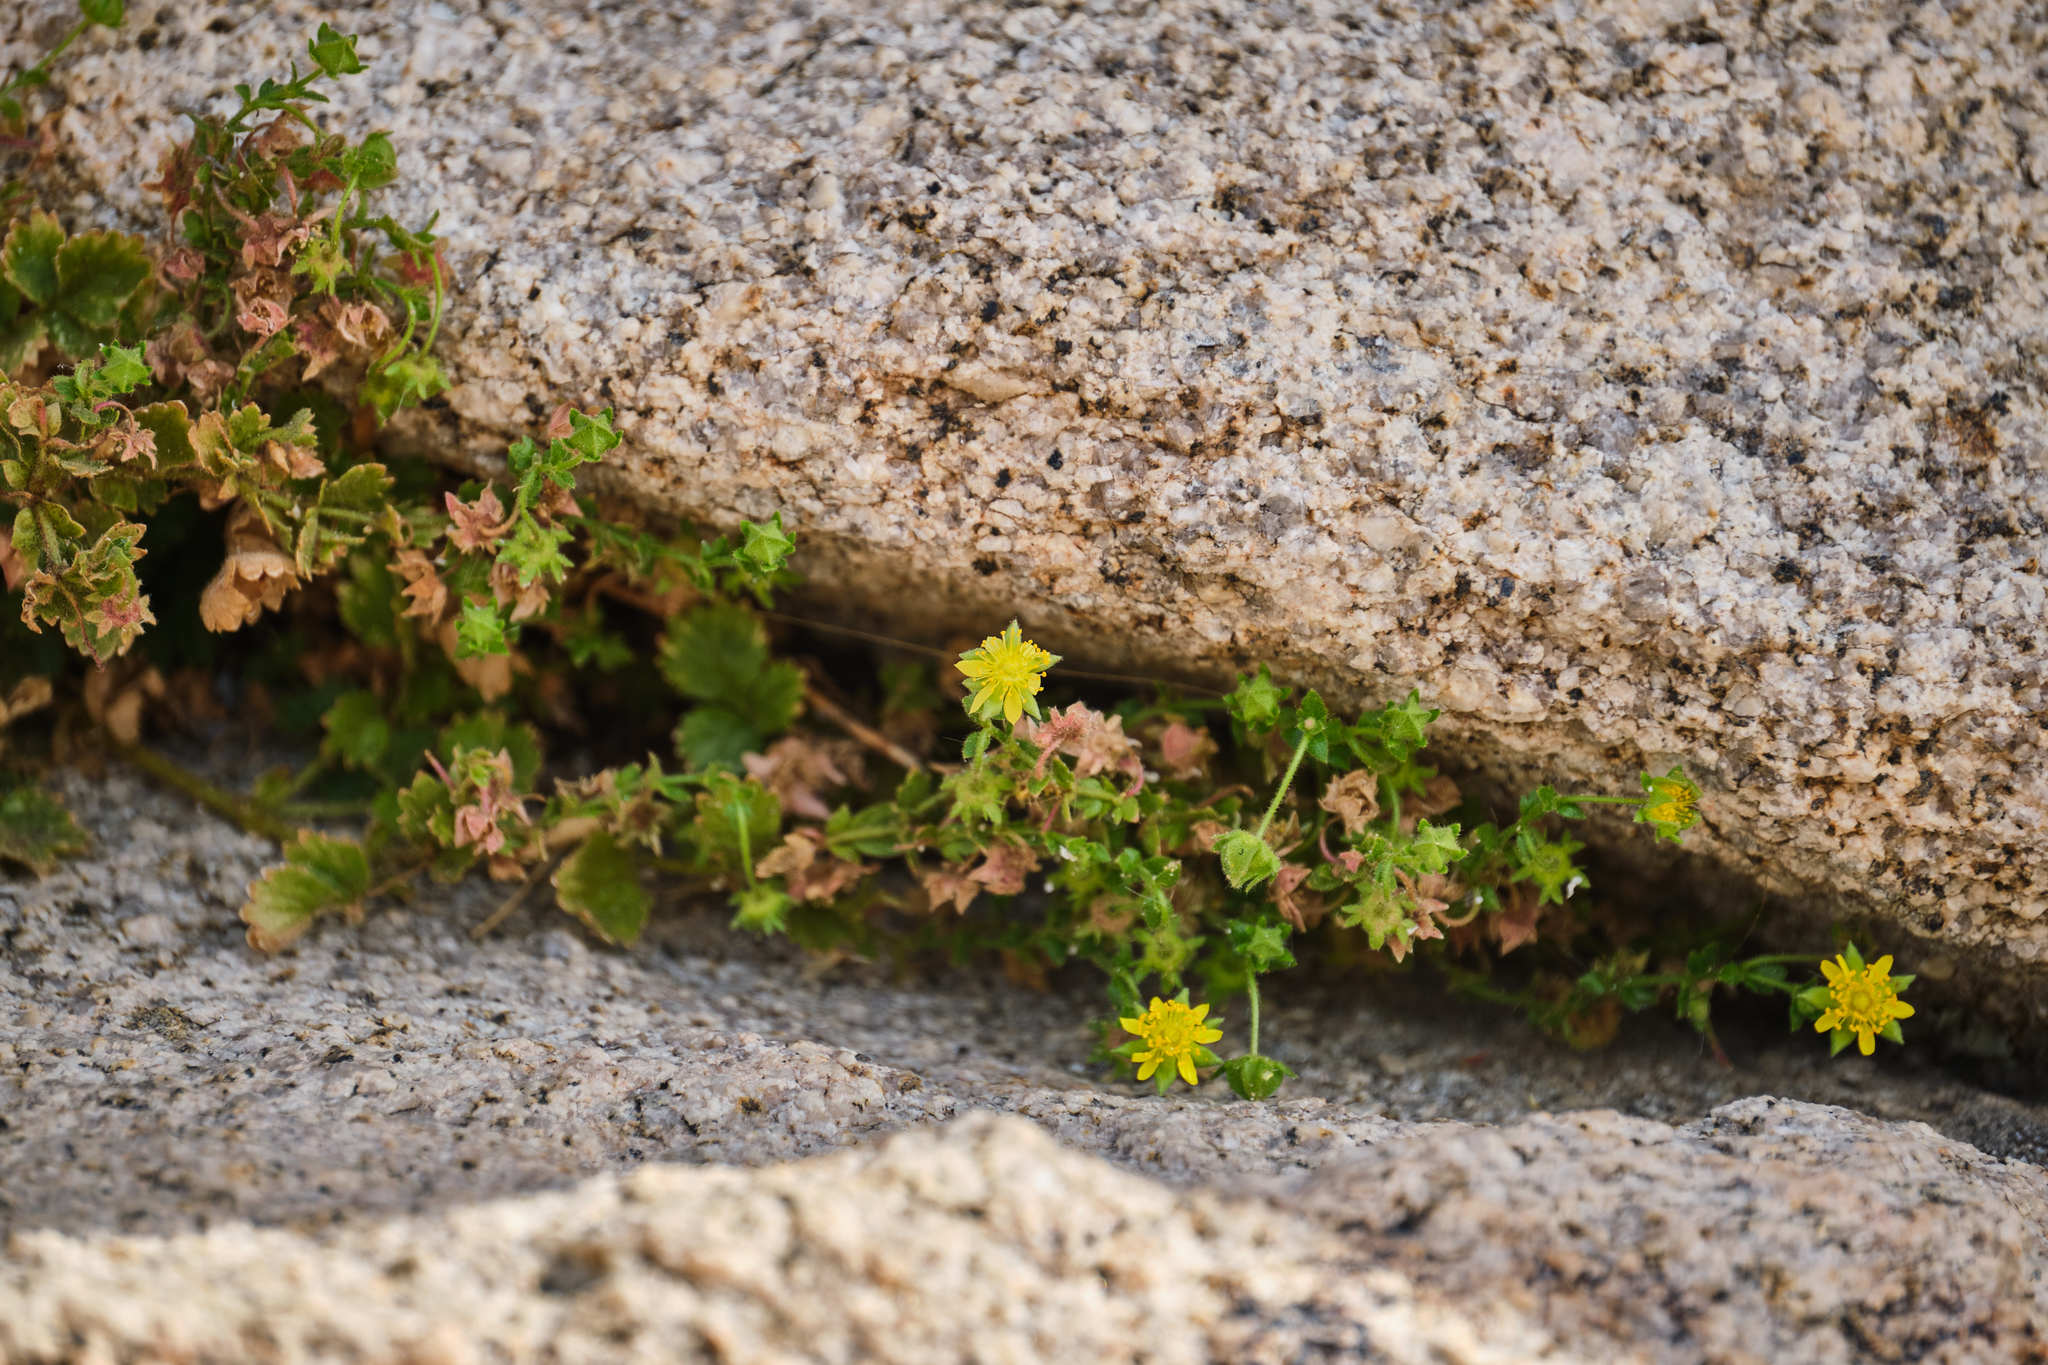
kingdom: Plantae
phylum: Tracheophyta
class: Magnoliopsida
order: Rosales
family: Rosaceae
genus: Potentilla
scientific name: Potentilla saxosa
